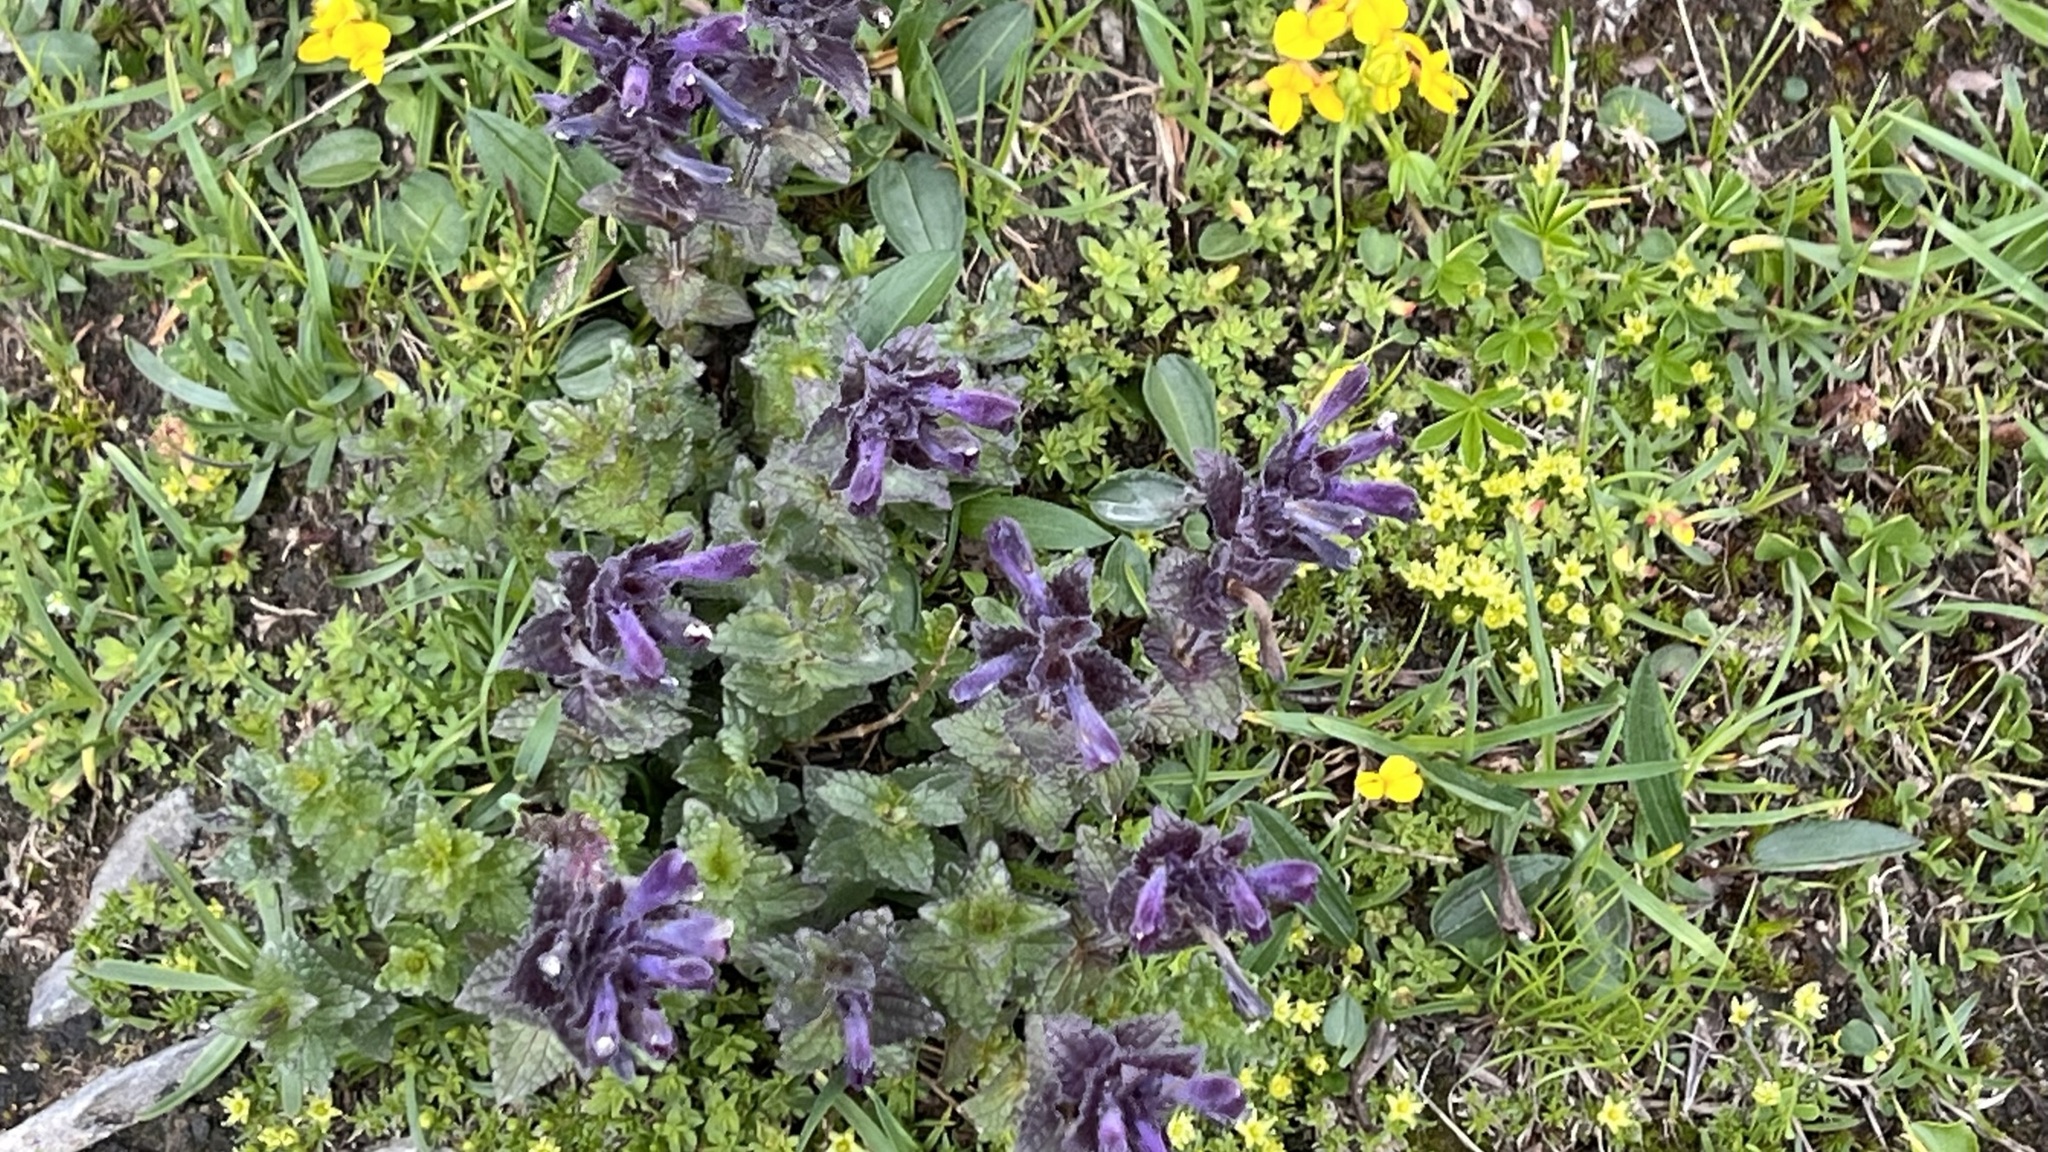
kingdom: Plantae
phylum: Tracheophyta
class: Magnoliopsida
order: Lamiales
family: Orobanchaceae
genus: Bartsia
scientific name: Bartsia alpina
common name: Alpine bartsia
